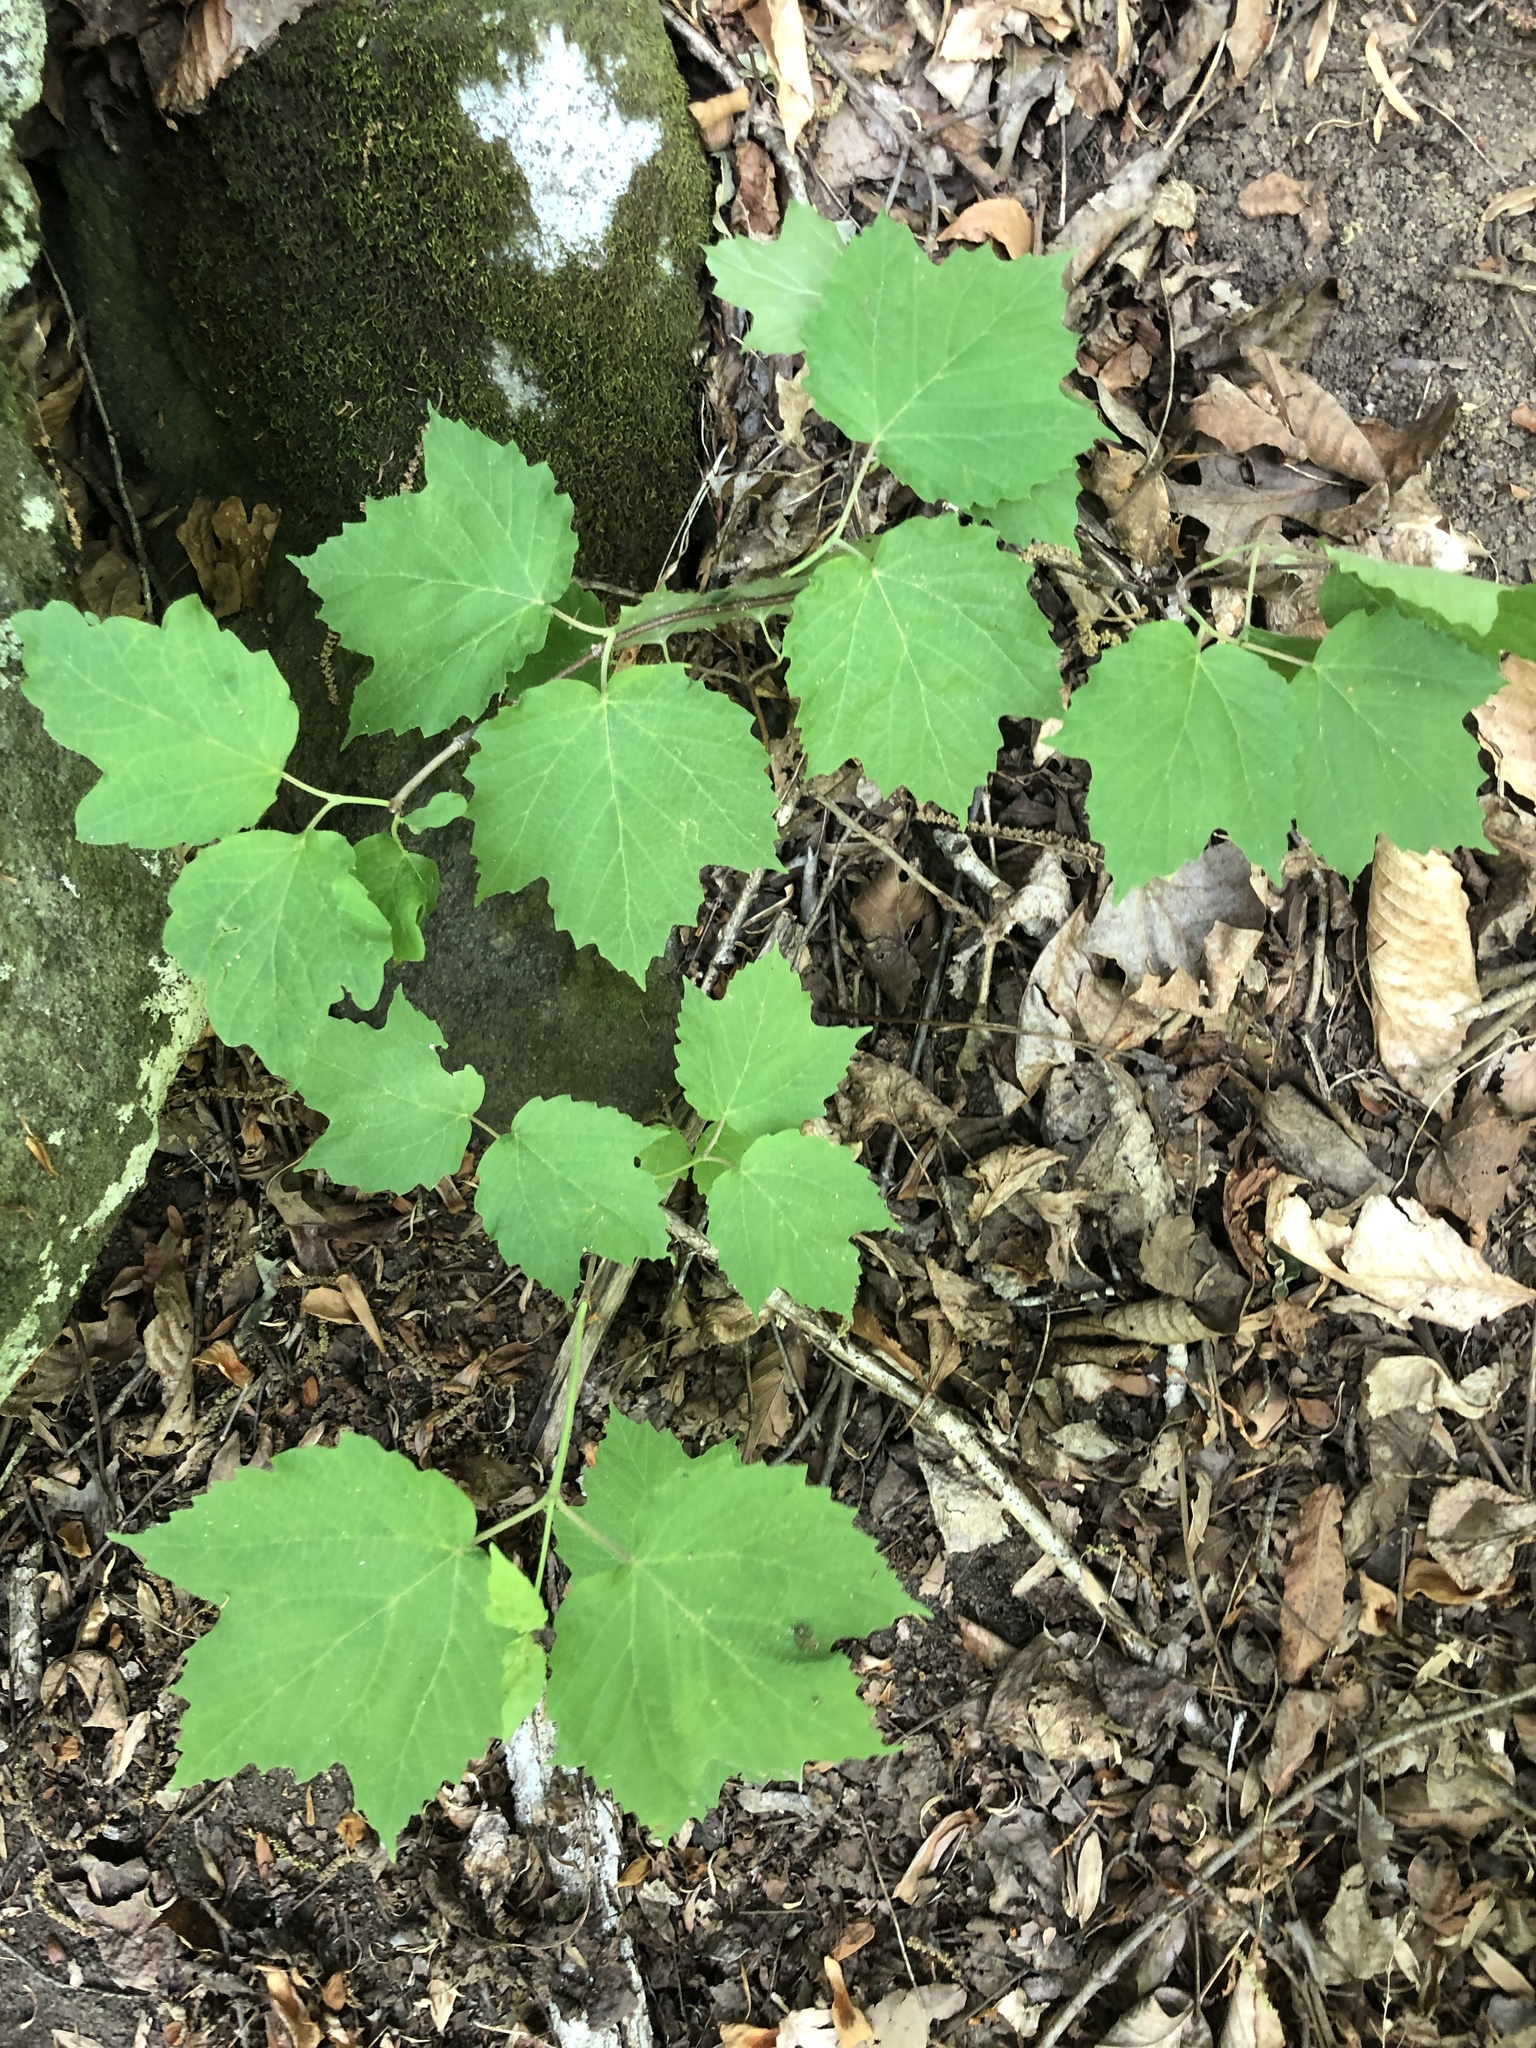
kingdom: Plantae
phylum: Tracheophyta
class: Magnoliopsida
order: Dipsacales
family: Viburnaceae
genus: Viburnum
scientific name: Viburnum acerifolium
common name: Dockmackie
